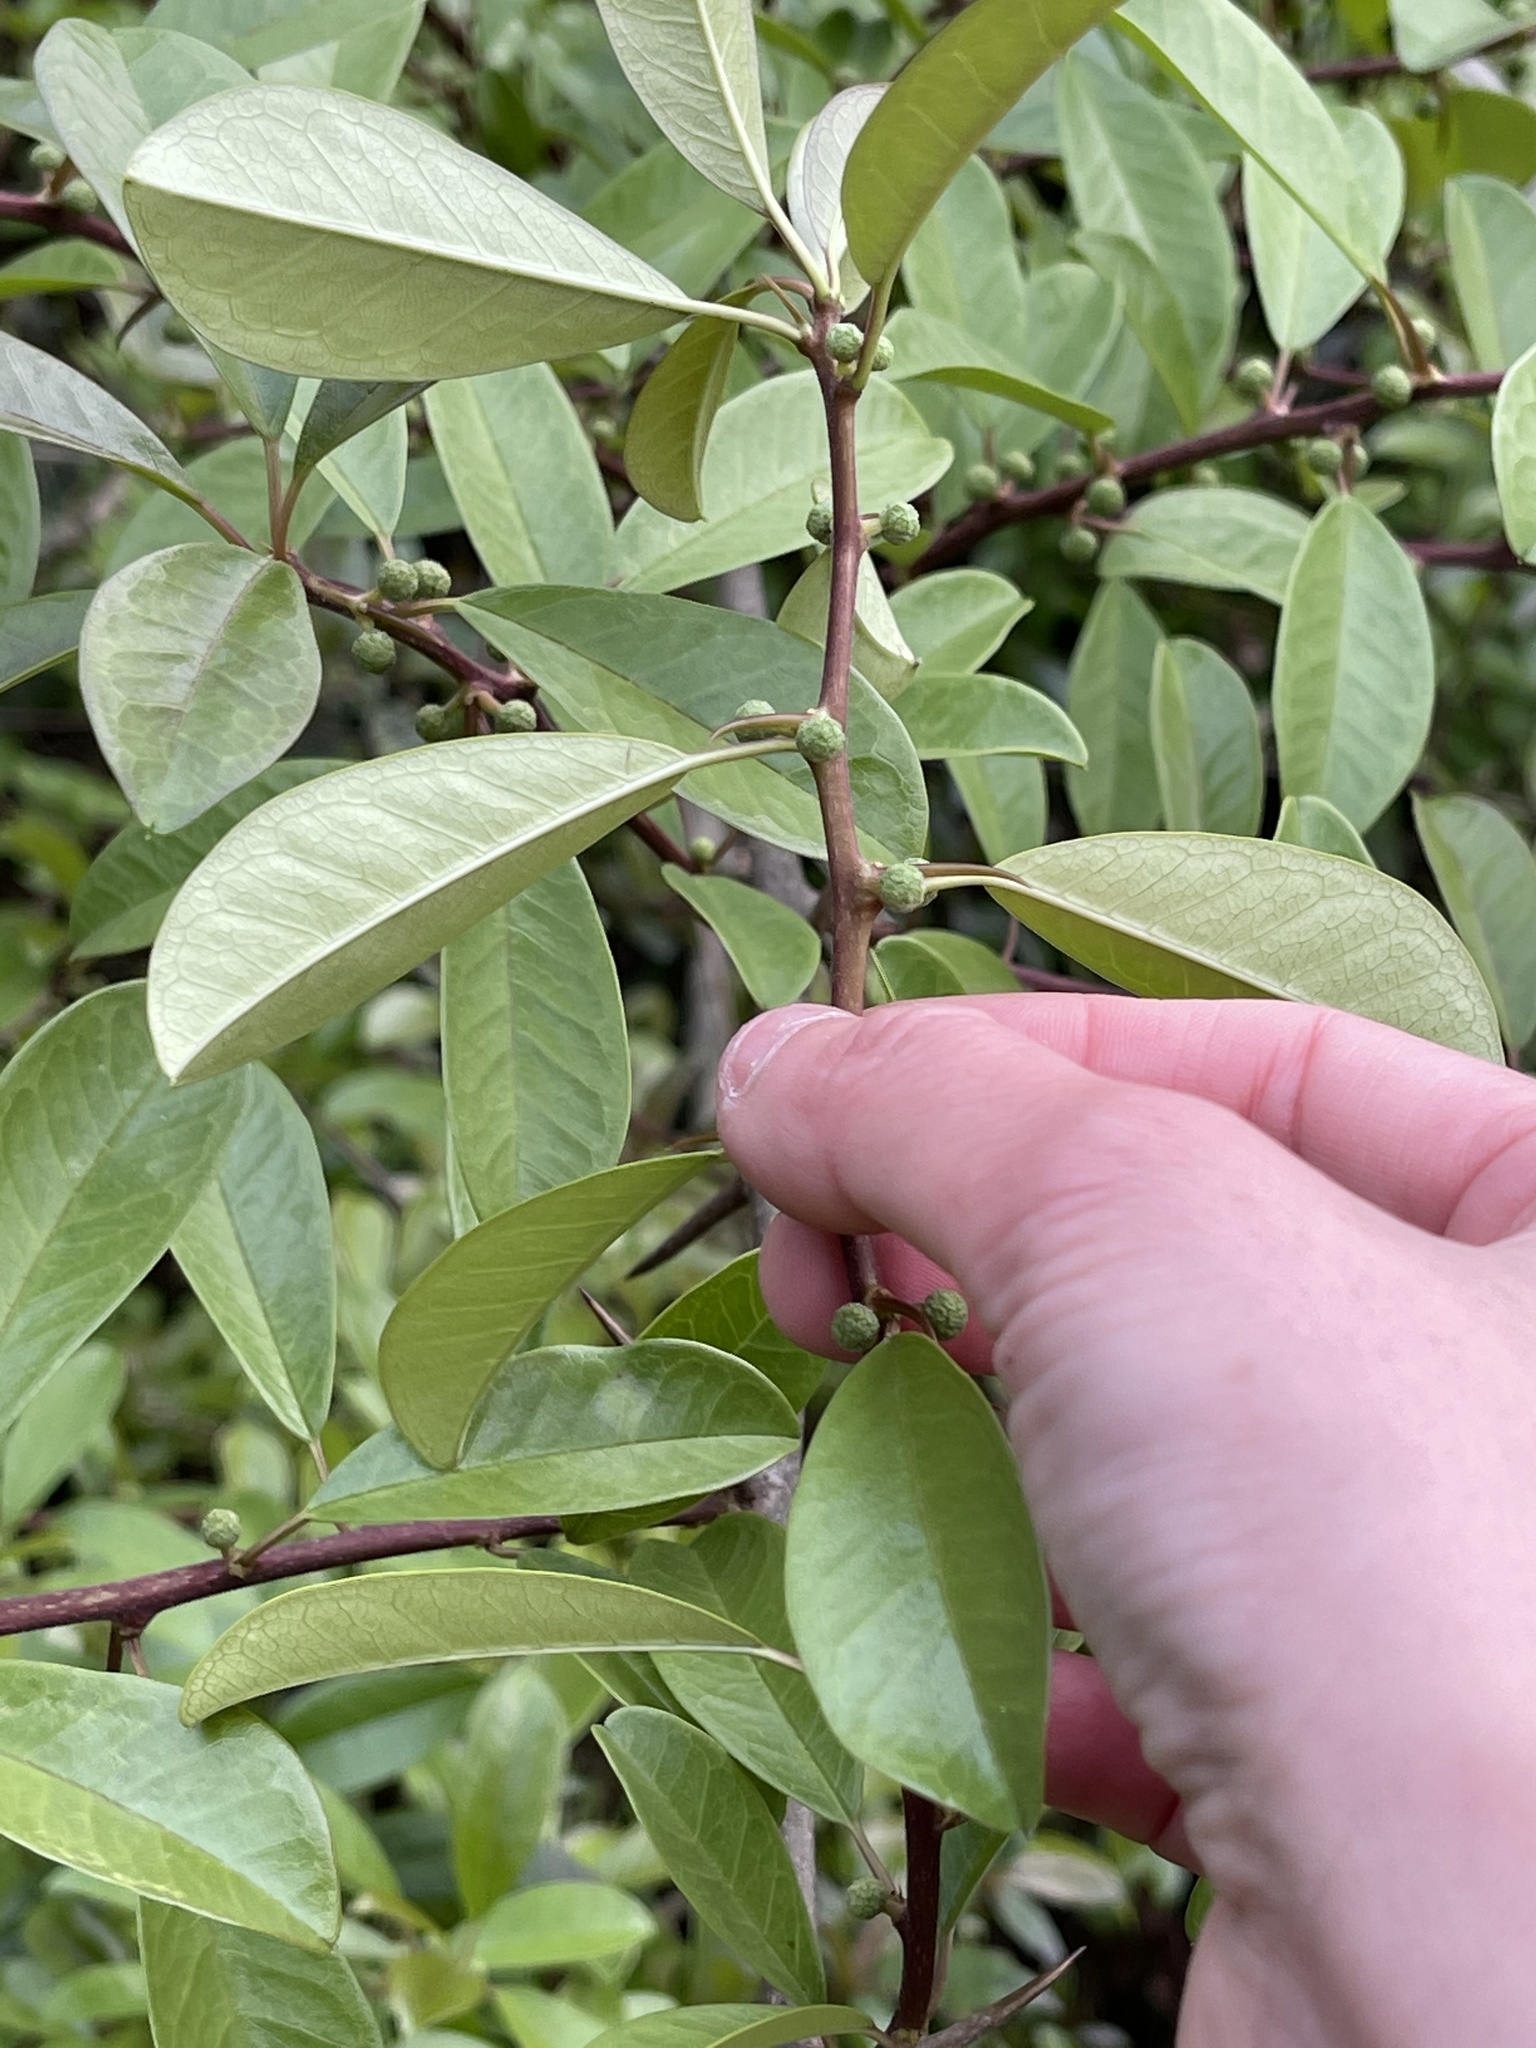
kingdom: Plantae
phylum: Tracheophyta
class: Magnoliopsida
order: Rosales
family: Moraceae
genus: Maclura
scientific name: Maclura cochinchinensis
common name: Cockspurthorn
